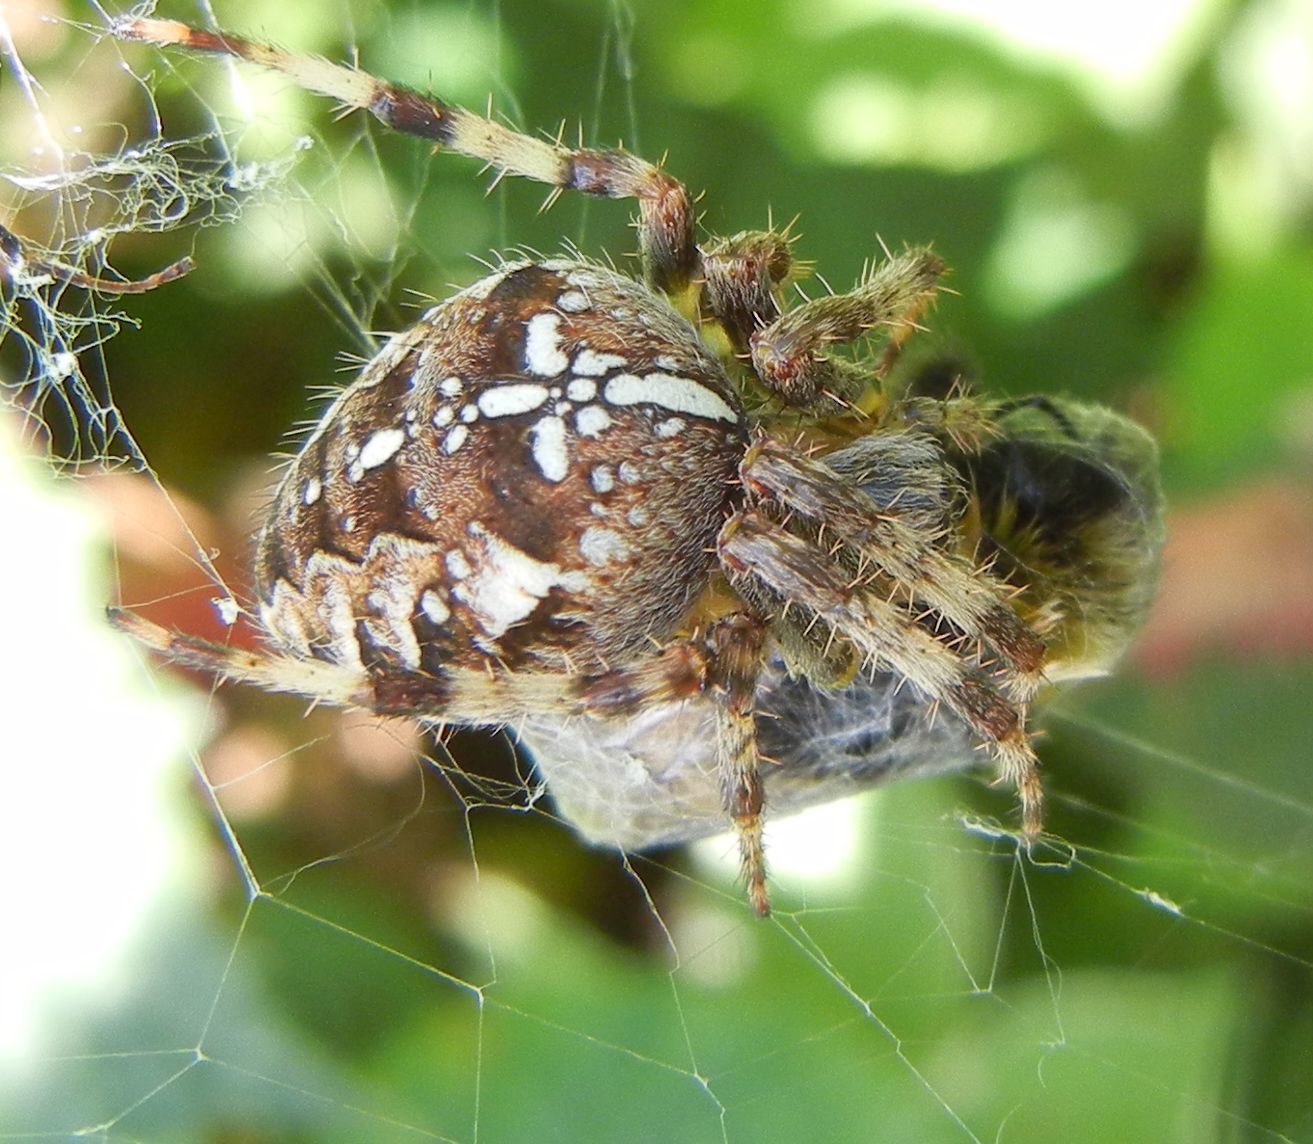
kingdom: Animalia
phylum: Arthropoda
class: Arachnida
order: Araneae
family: Araneidae
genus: Araneus
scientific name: Araneus diadematus
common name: Cross orbweaver
